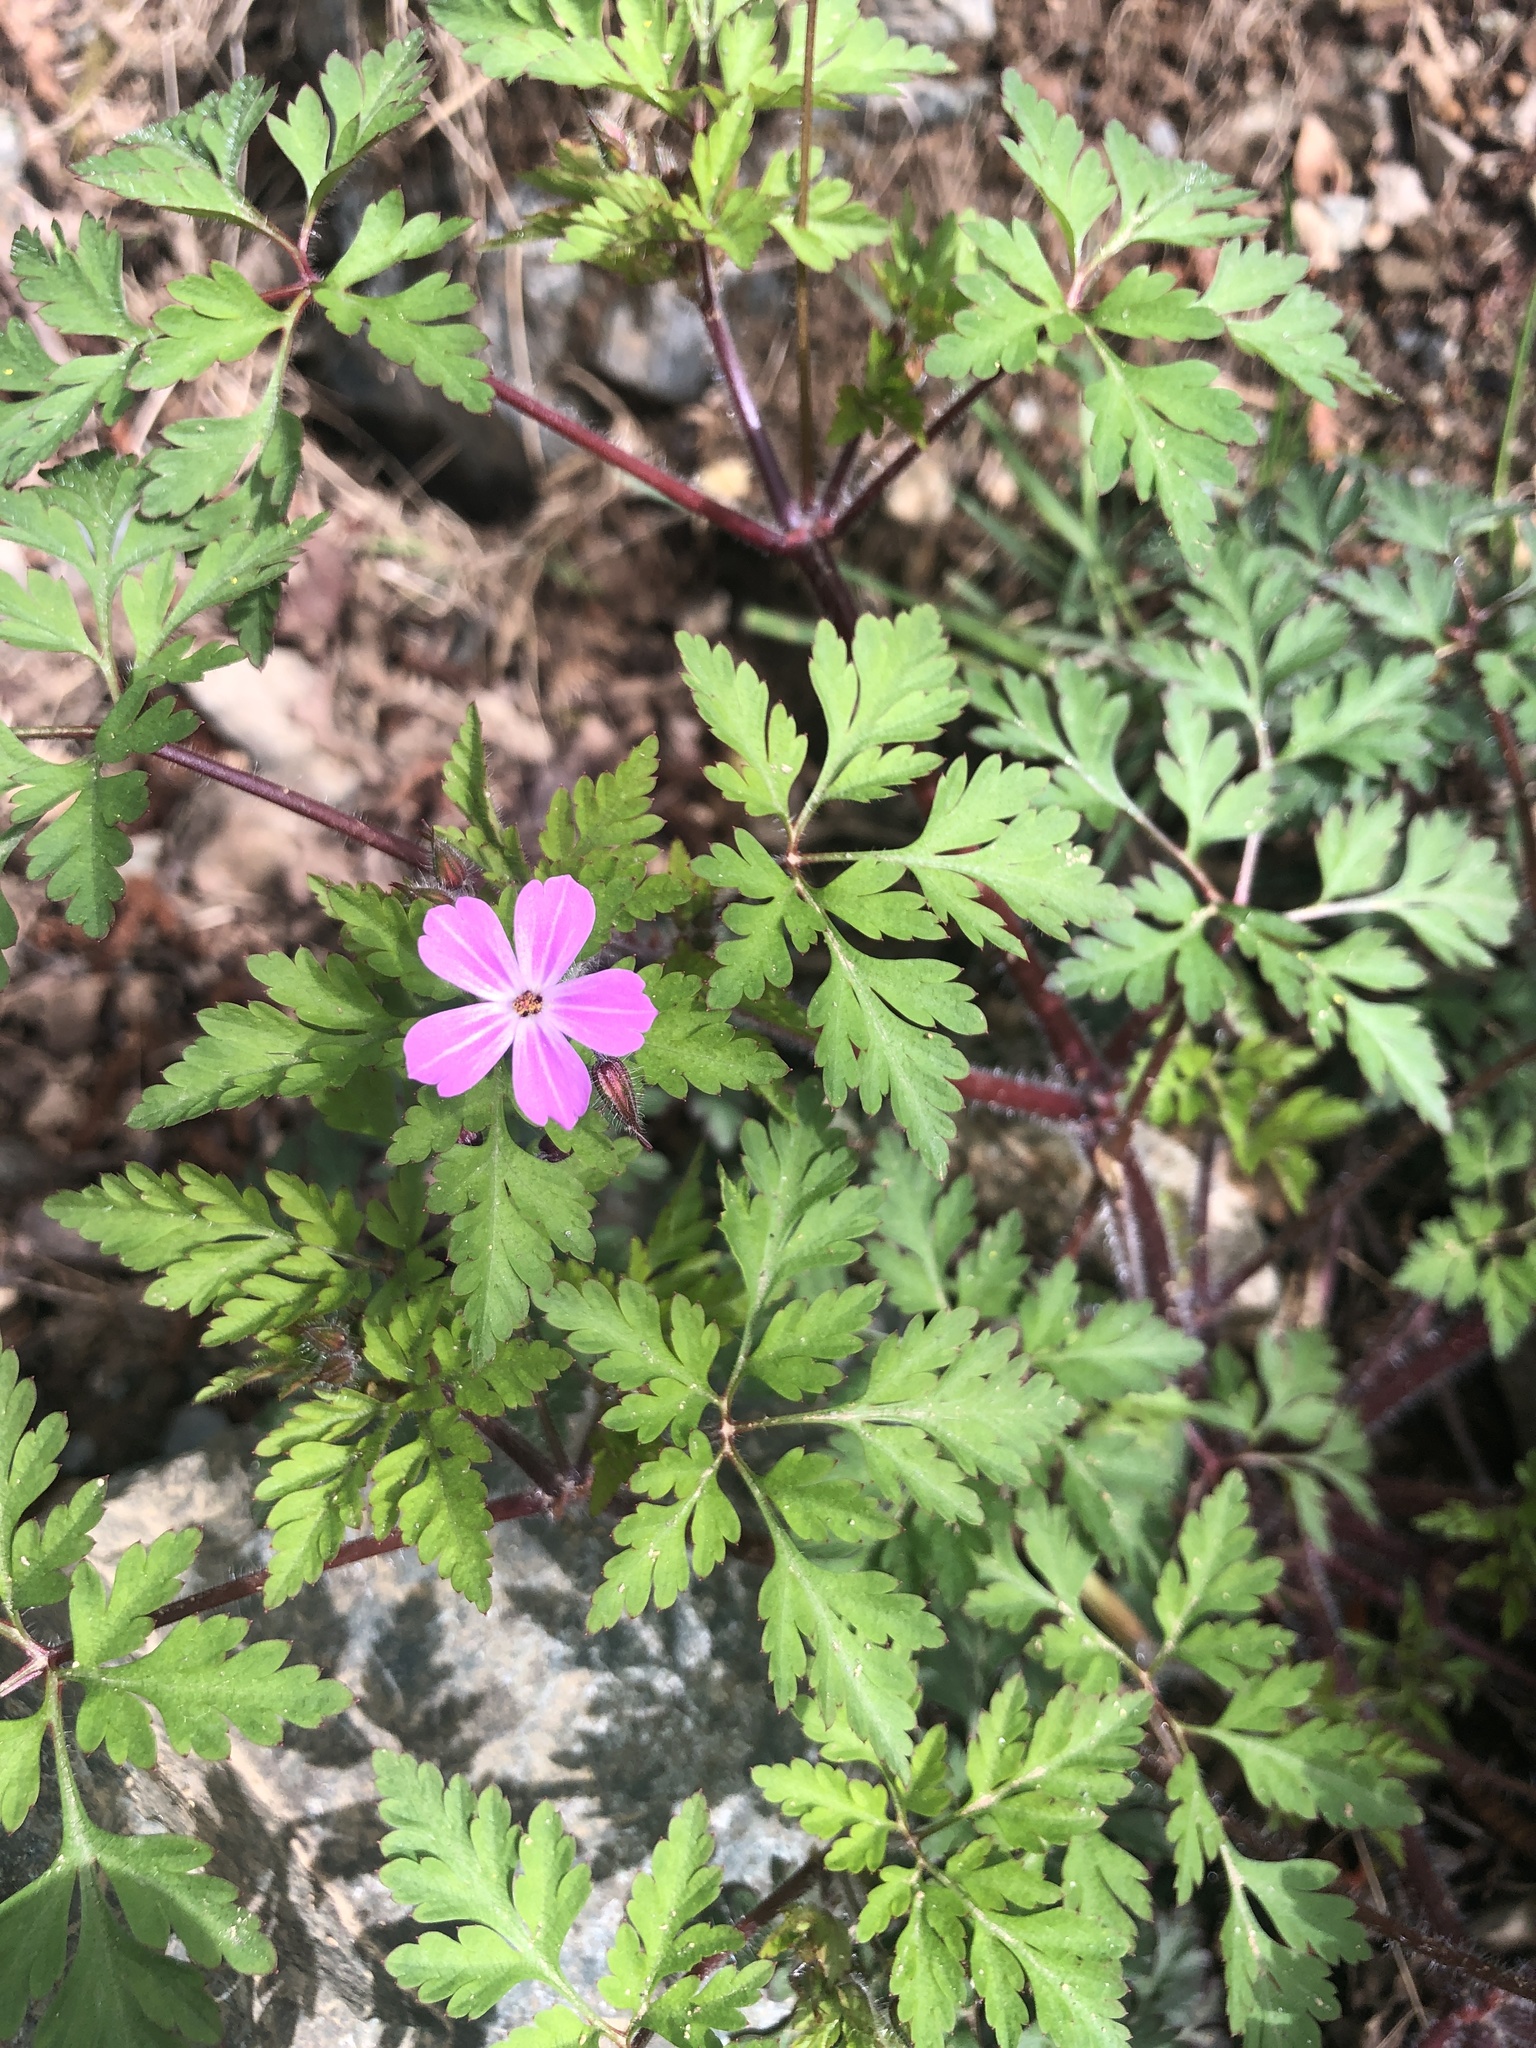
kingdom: Plantae
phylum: Tracheophyta
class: Magnoliopsida
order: Geraniales
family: Geraniaceae
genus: Geranium
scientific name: Geranium robertianum
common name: Herb-robert
